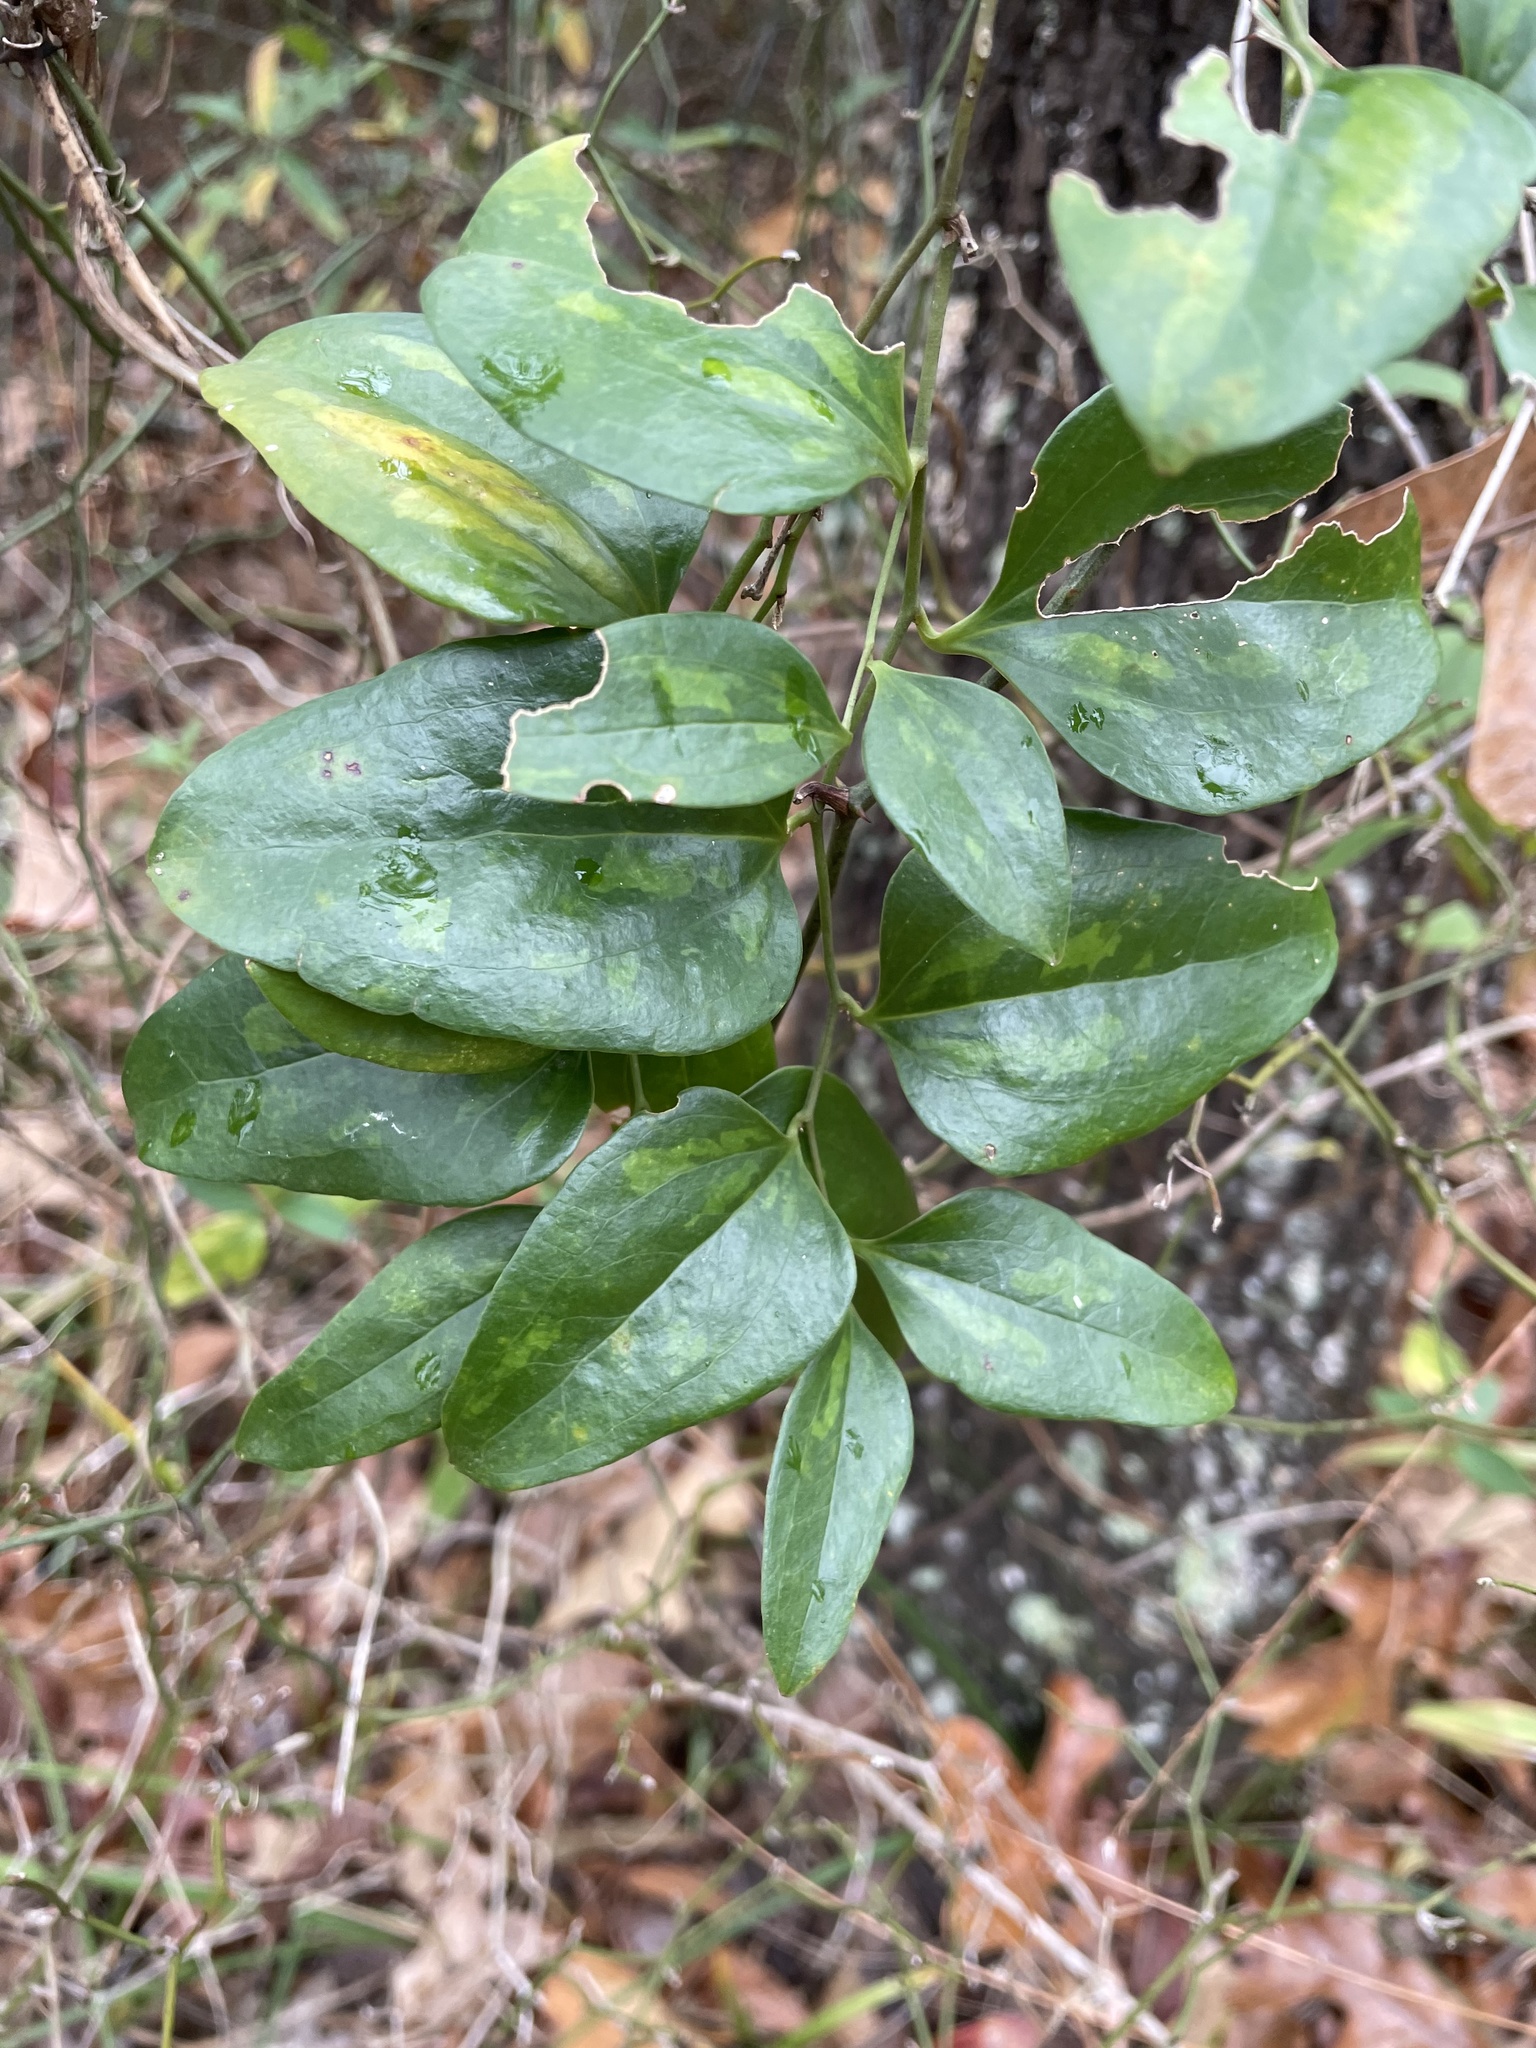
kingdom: Plantae
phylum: Tracheophyta
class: Liliopsida
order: Liliales
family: Smilacaceae
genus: Smilax
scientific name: Smilax maritima
